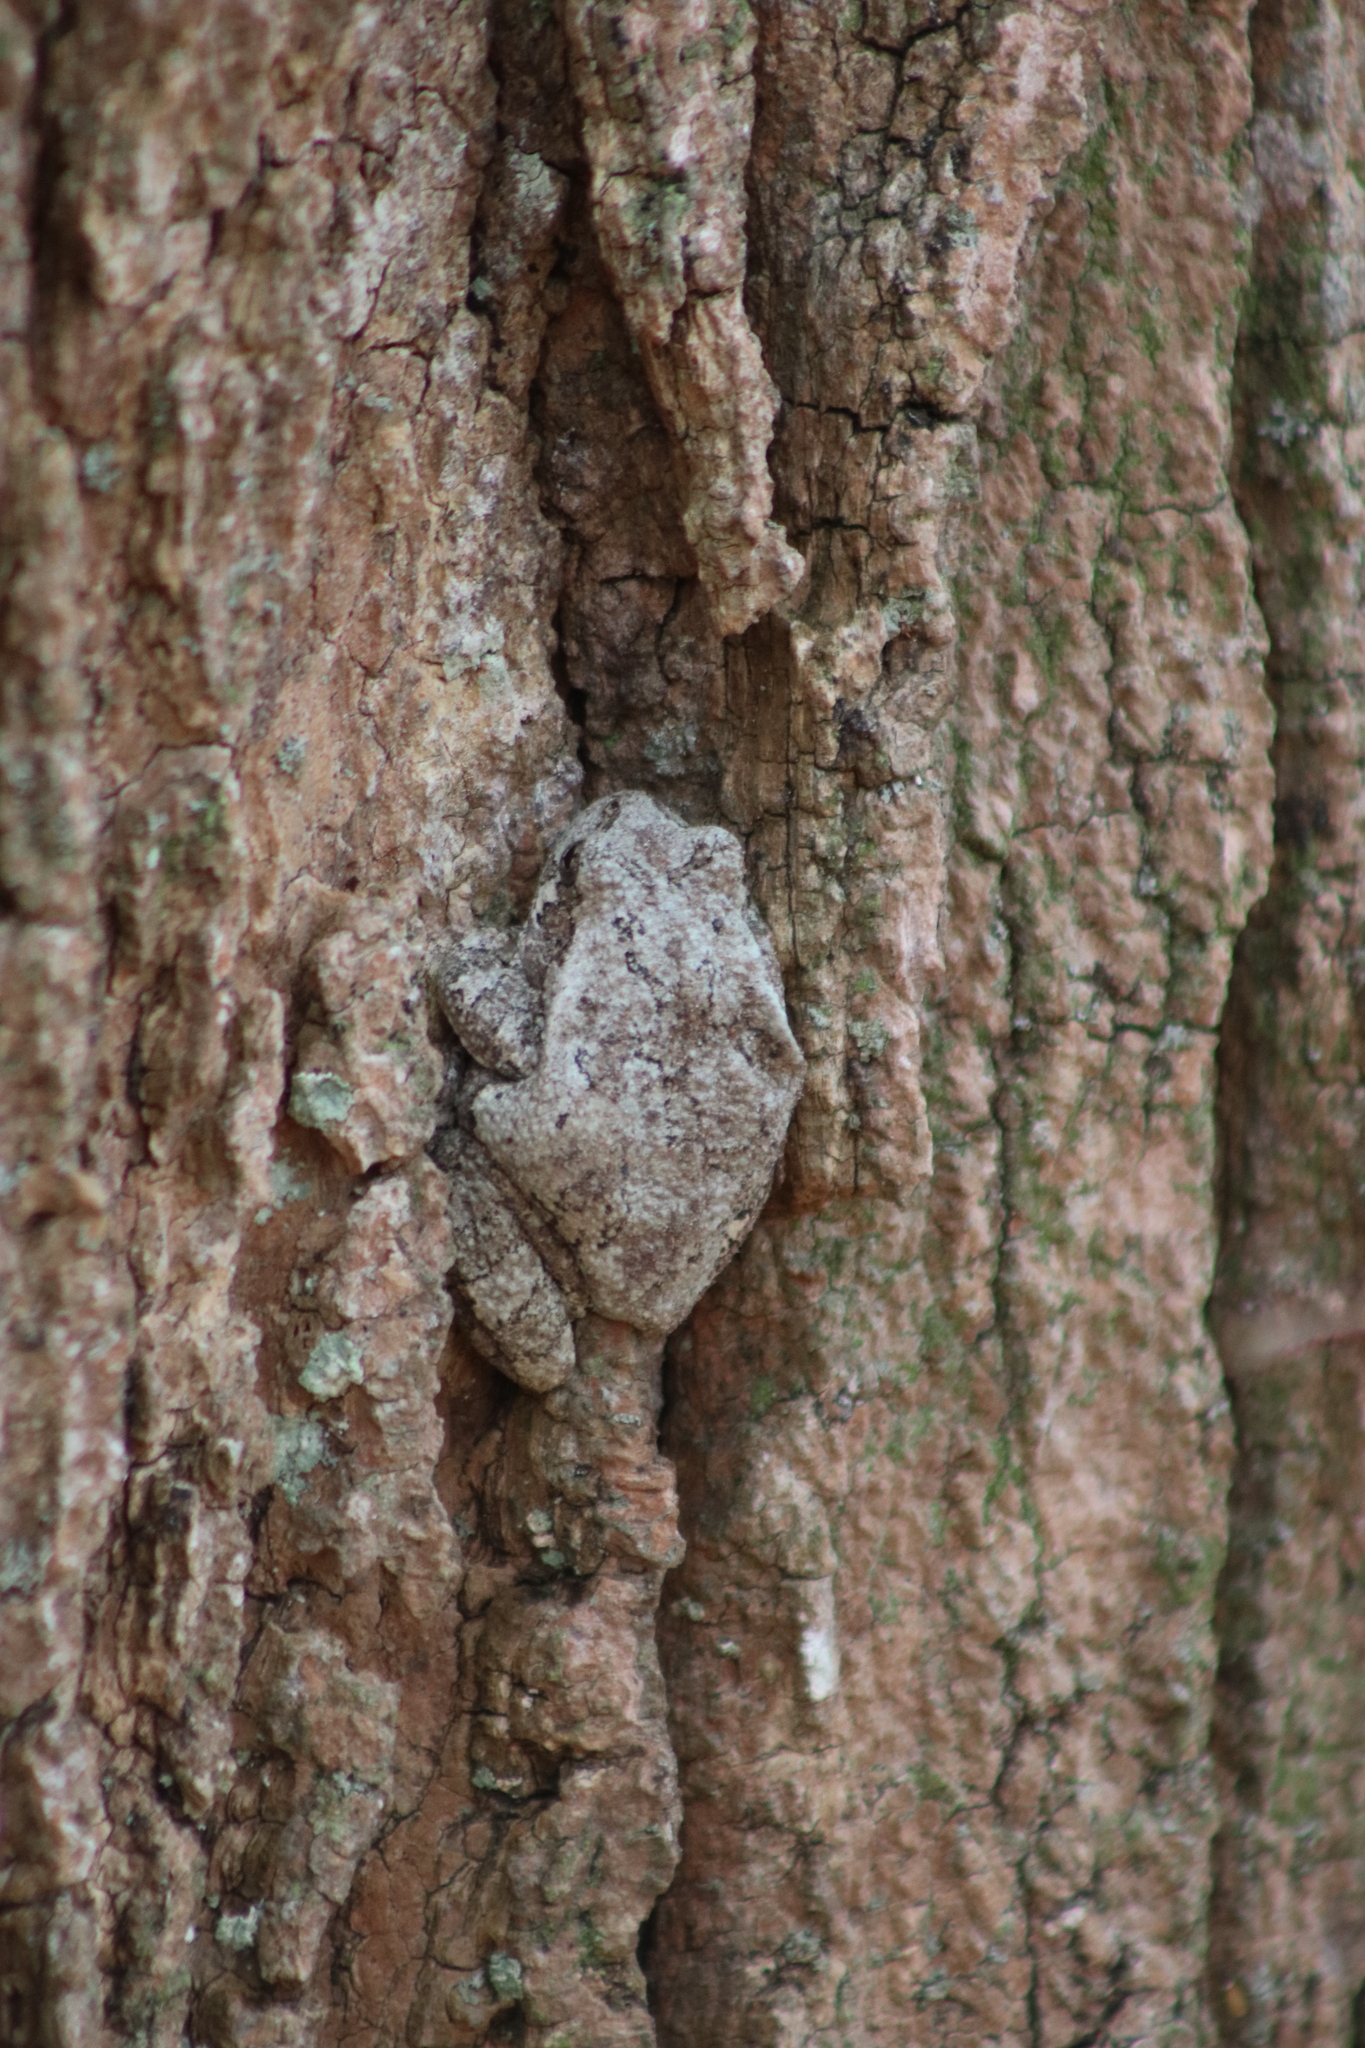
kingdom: Animalia
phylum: Chordata
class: Amphibia
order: Anura
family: Hylidae
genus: Dryophytes
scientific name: Dryophytes versicolor
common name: Gray treefrog
